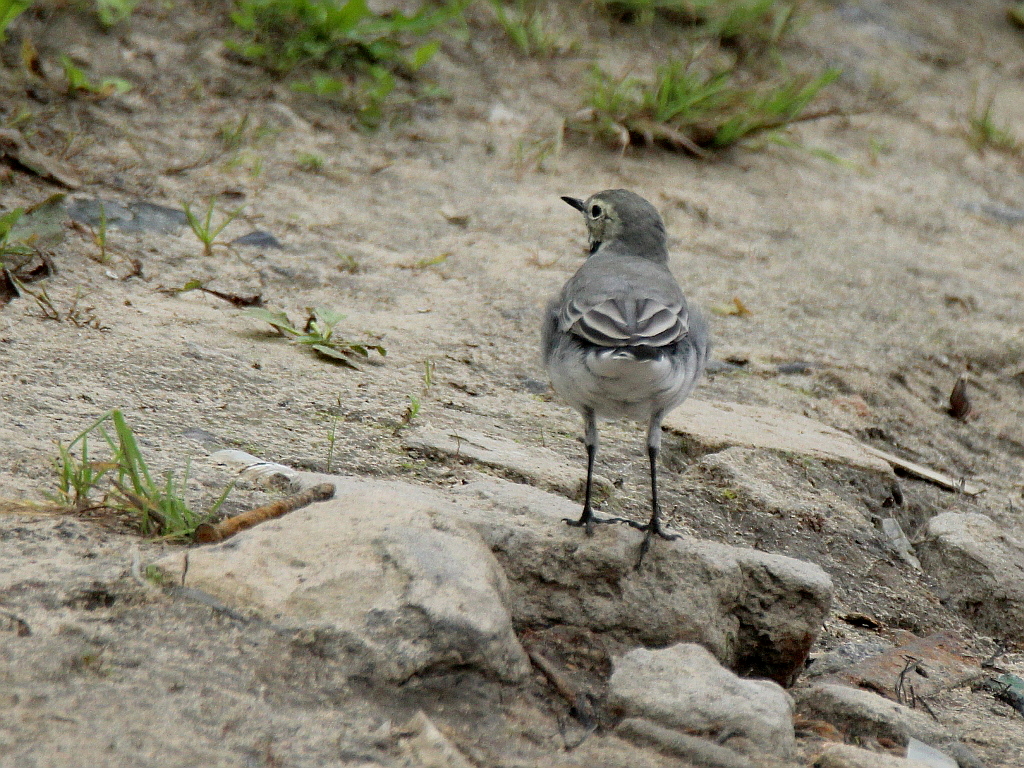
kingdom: Animalia
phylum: Chordata
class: Aves
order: Passeriformes
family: Motacillidae
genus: Motacilla
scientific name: Motacilla alba
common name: White wagtail
